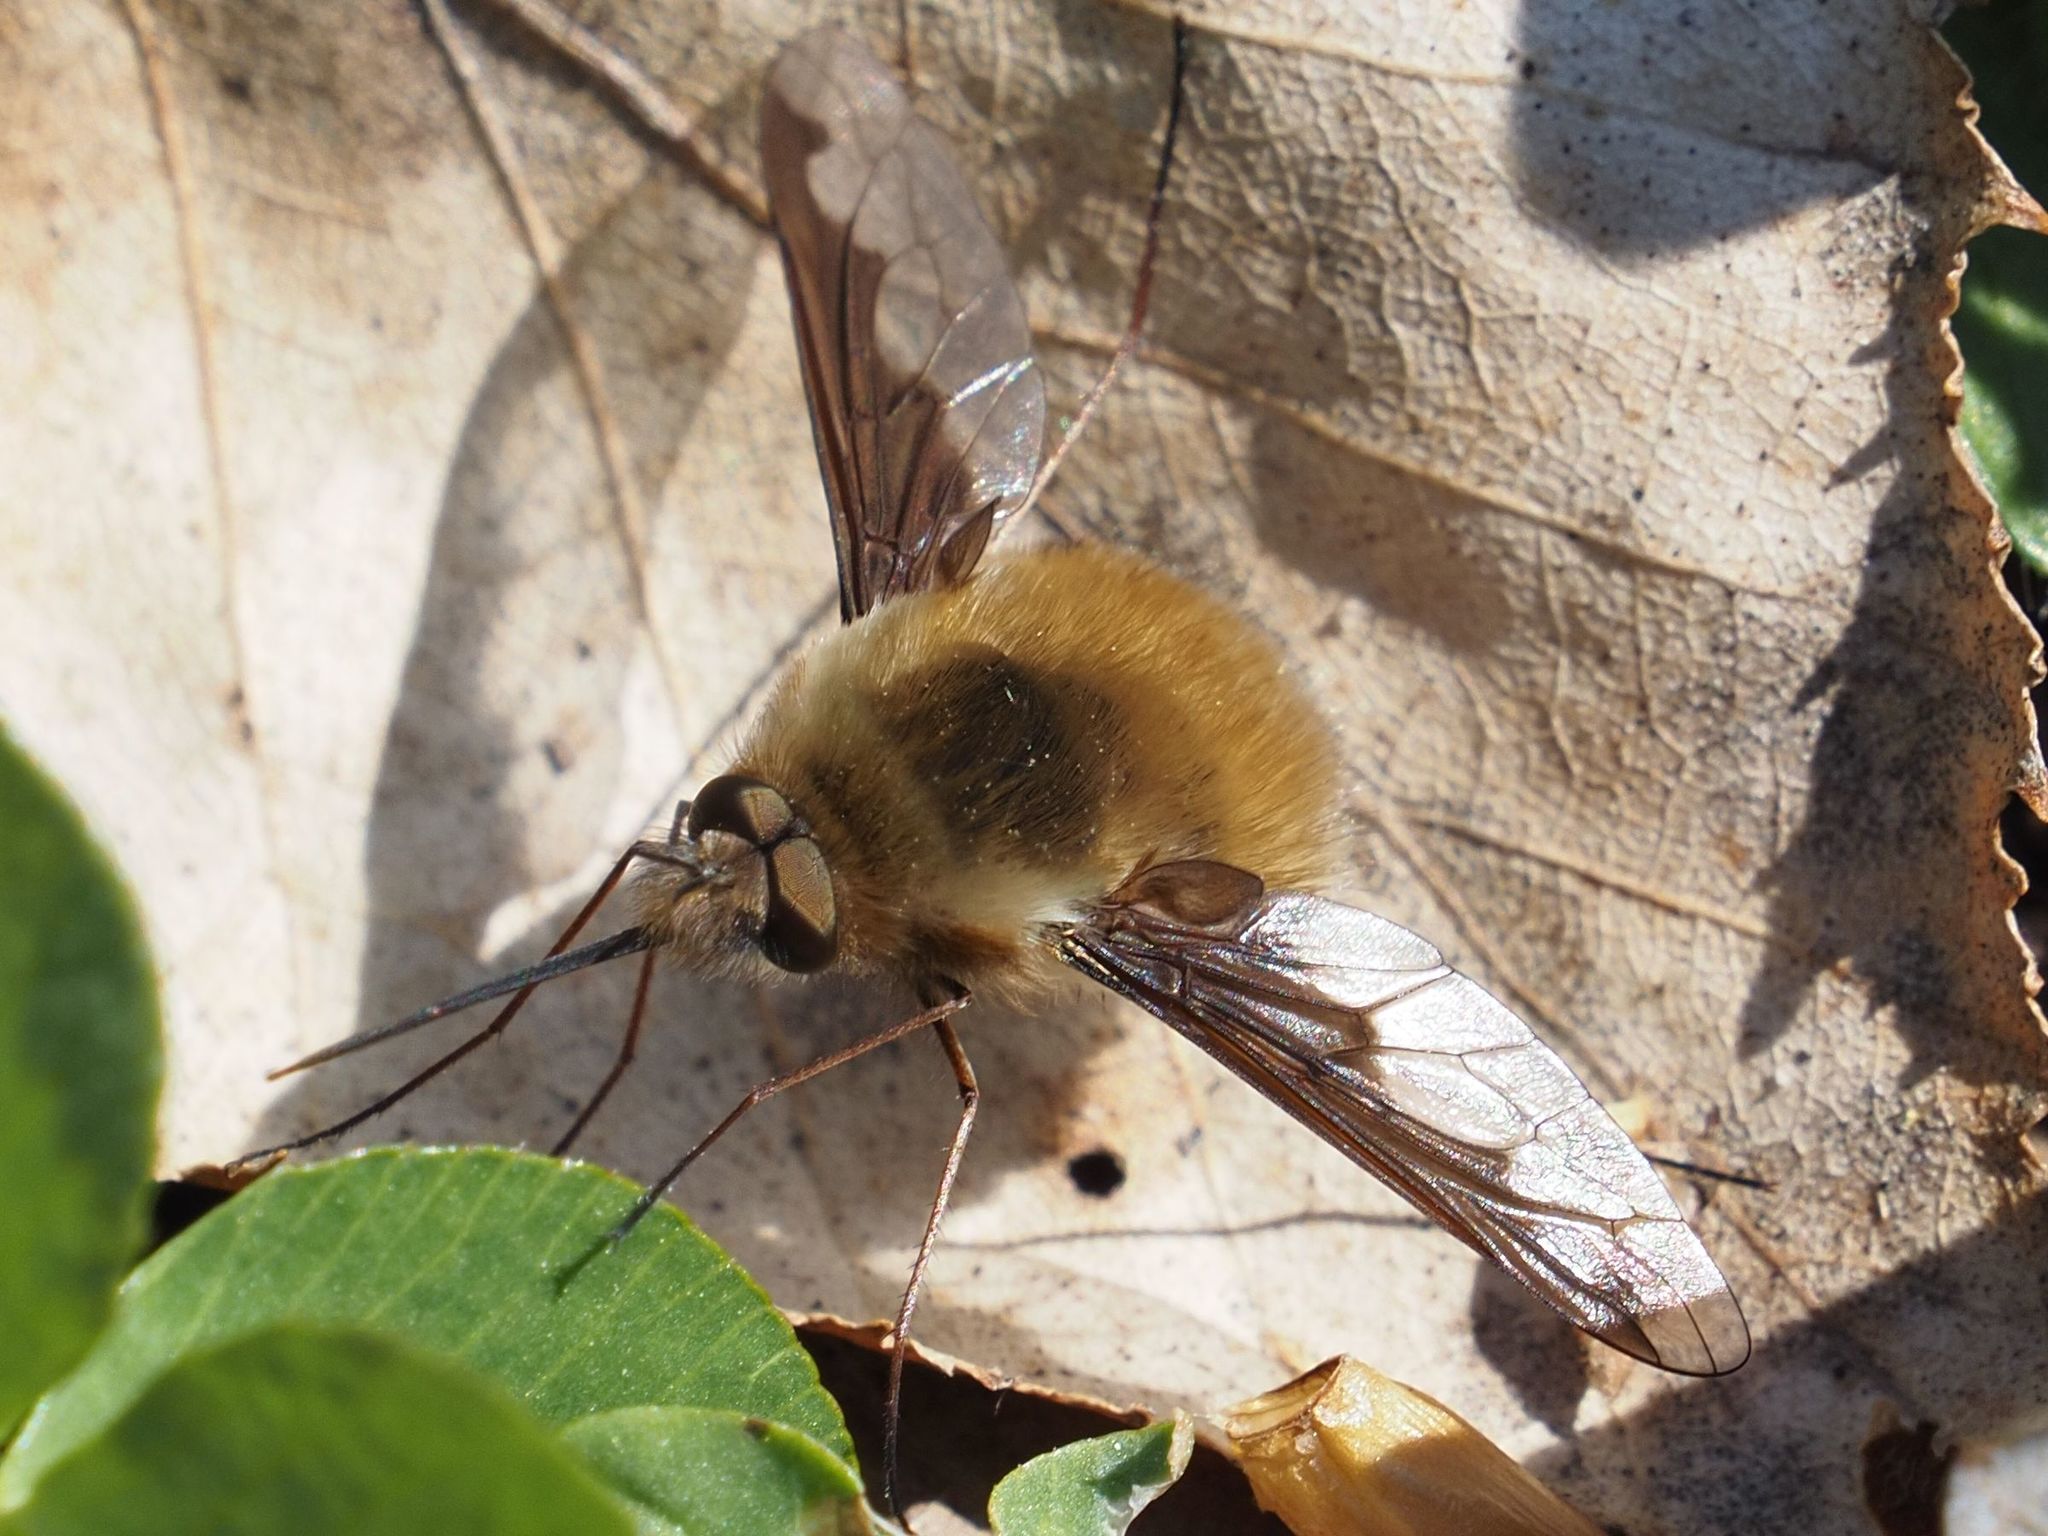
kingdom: Animalia
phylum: Arthropoda
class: Insecta
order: Diptera
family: Bombyliidae
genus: Bombylius
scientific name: Bombylius major
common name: Bee fly
